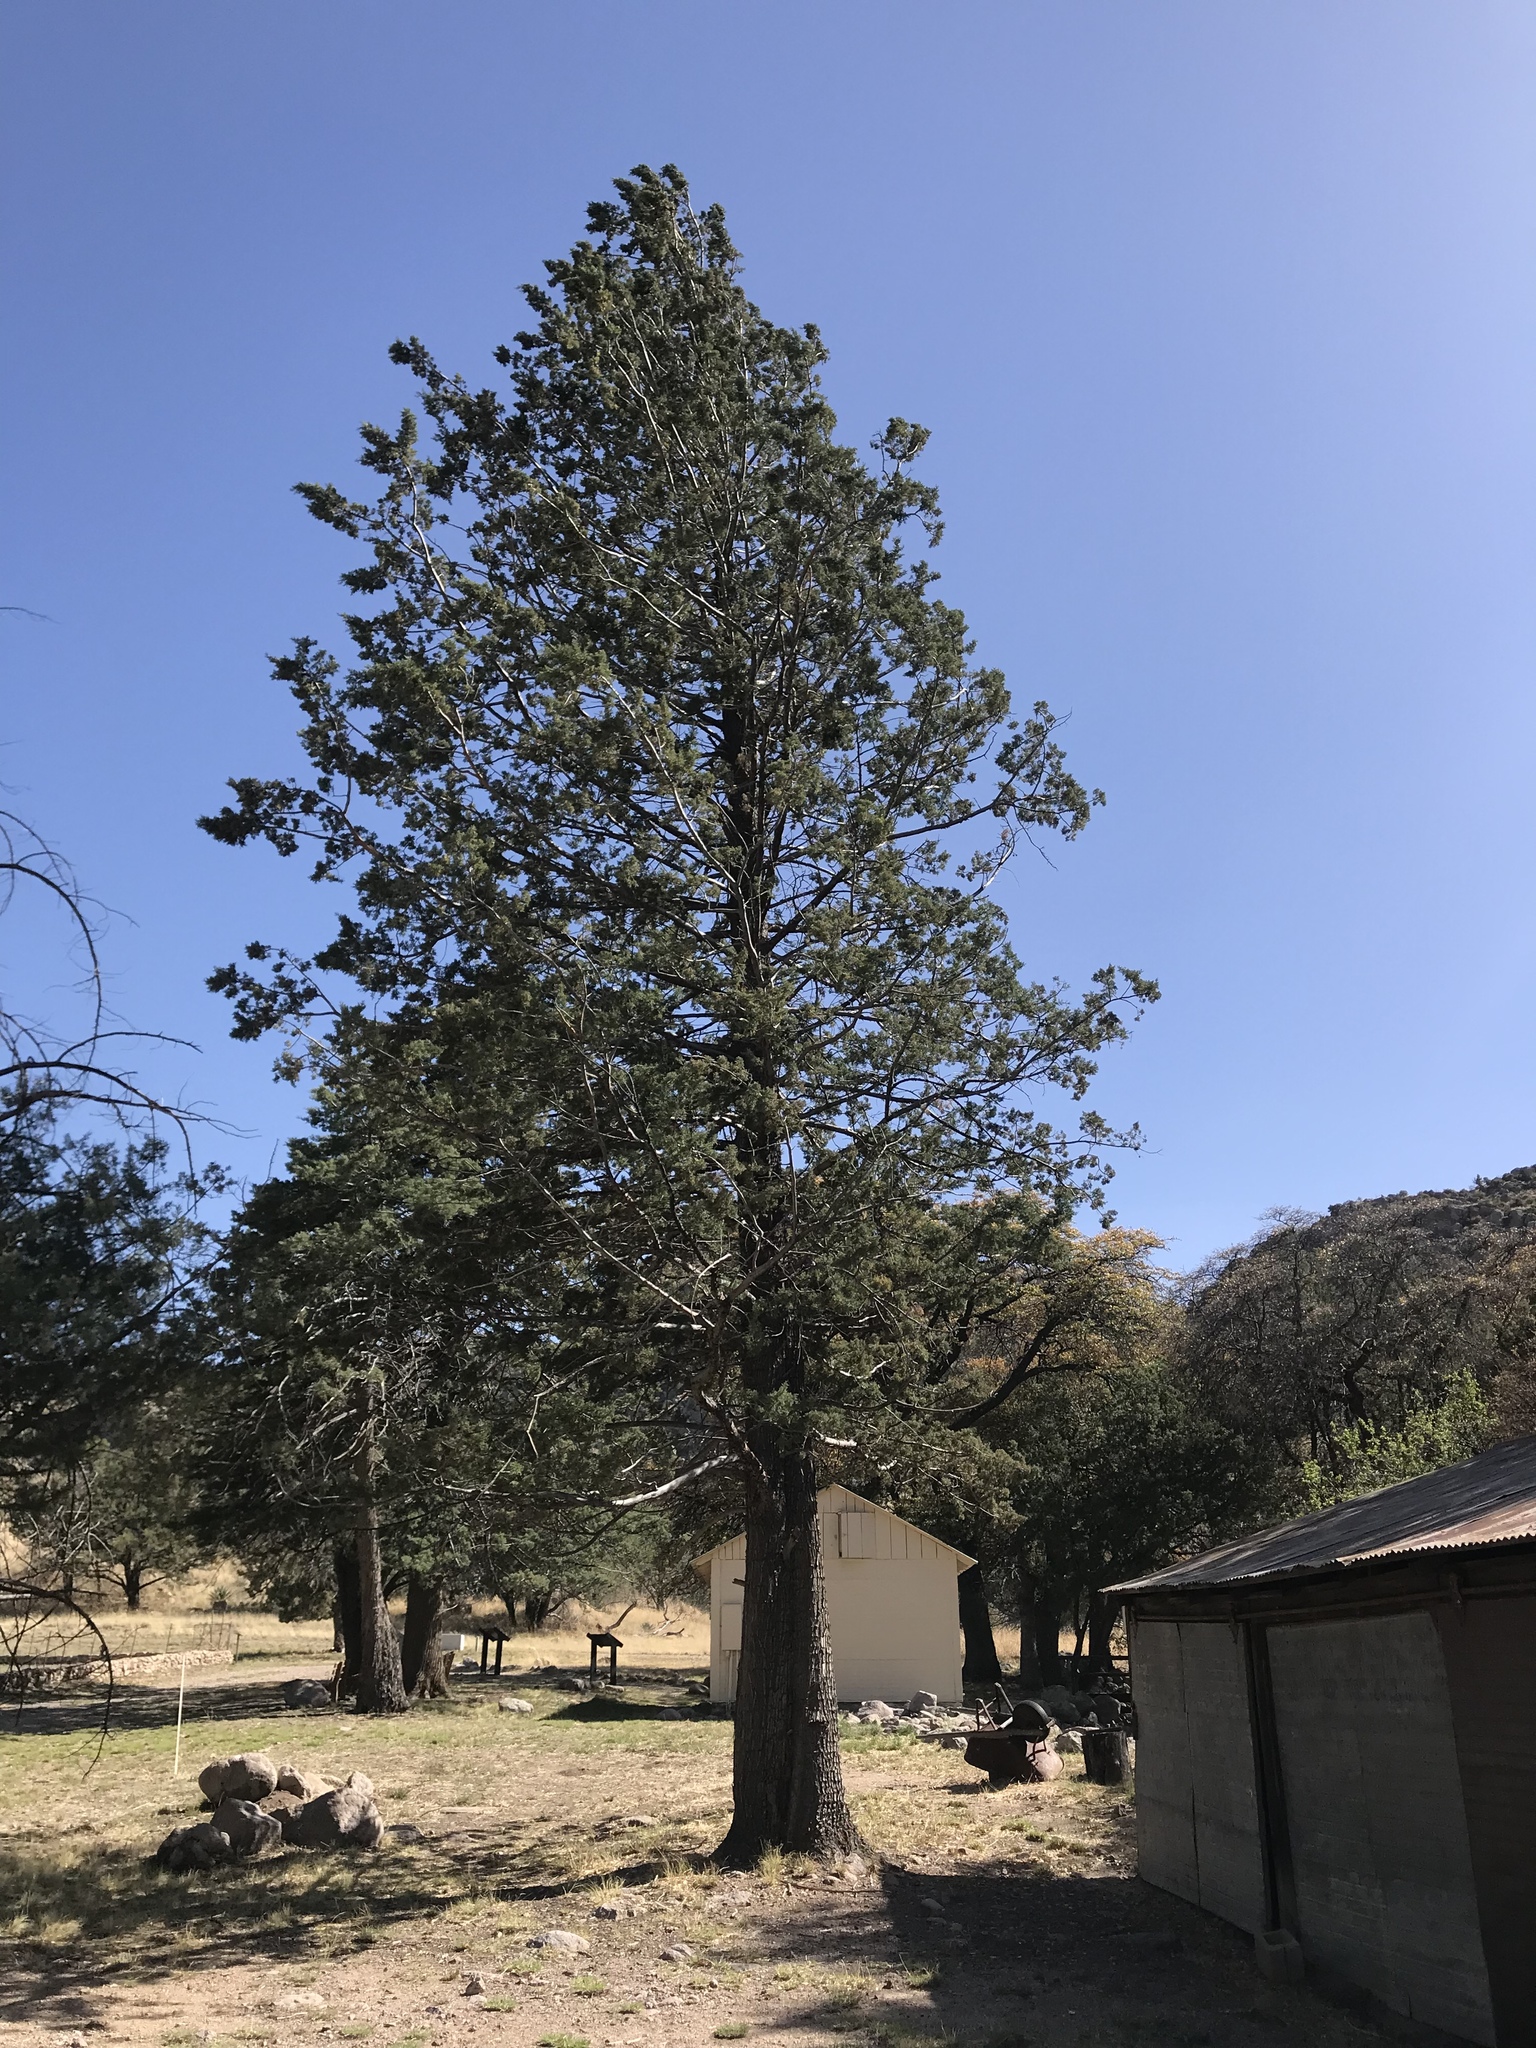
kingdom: Plantae
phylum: Tracheophyta
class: Pinopsida
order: Pinales
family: Cupressaceae
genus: Cupressus
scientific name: Cupressus arizonica
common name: Arizona cypress
